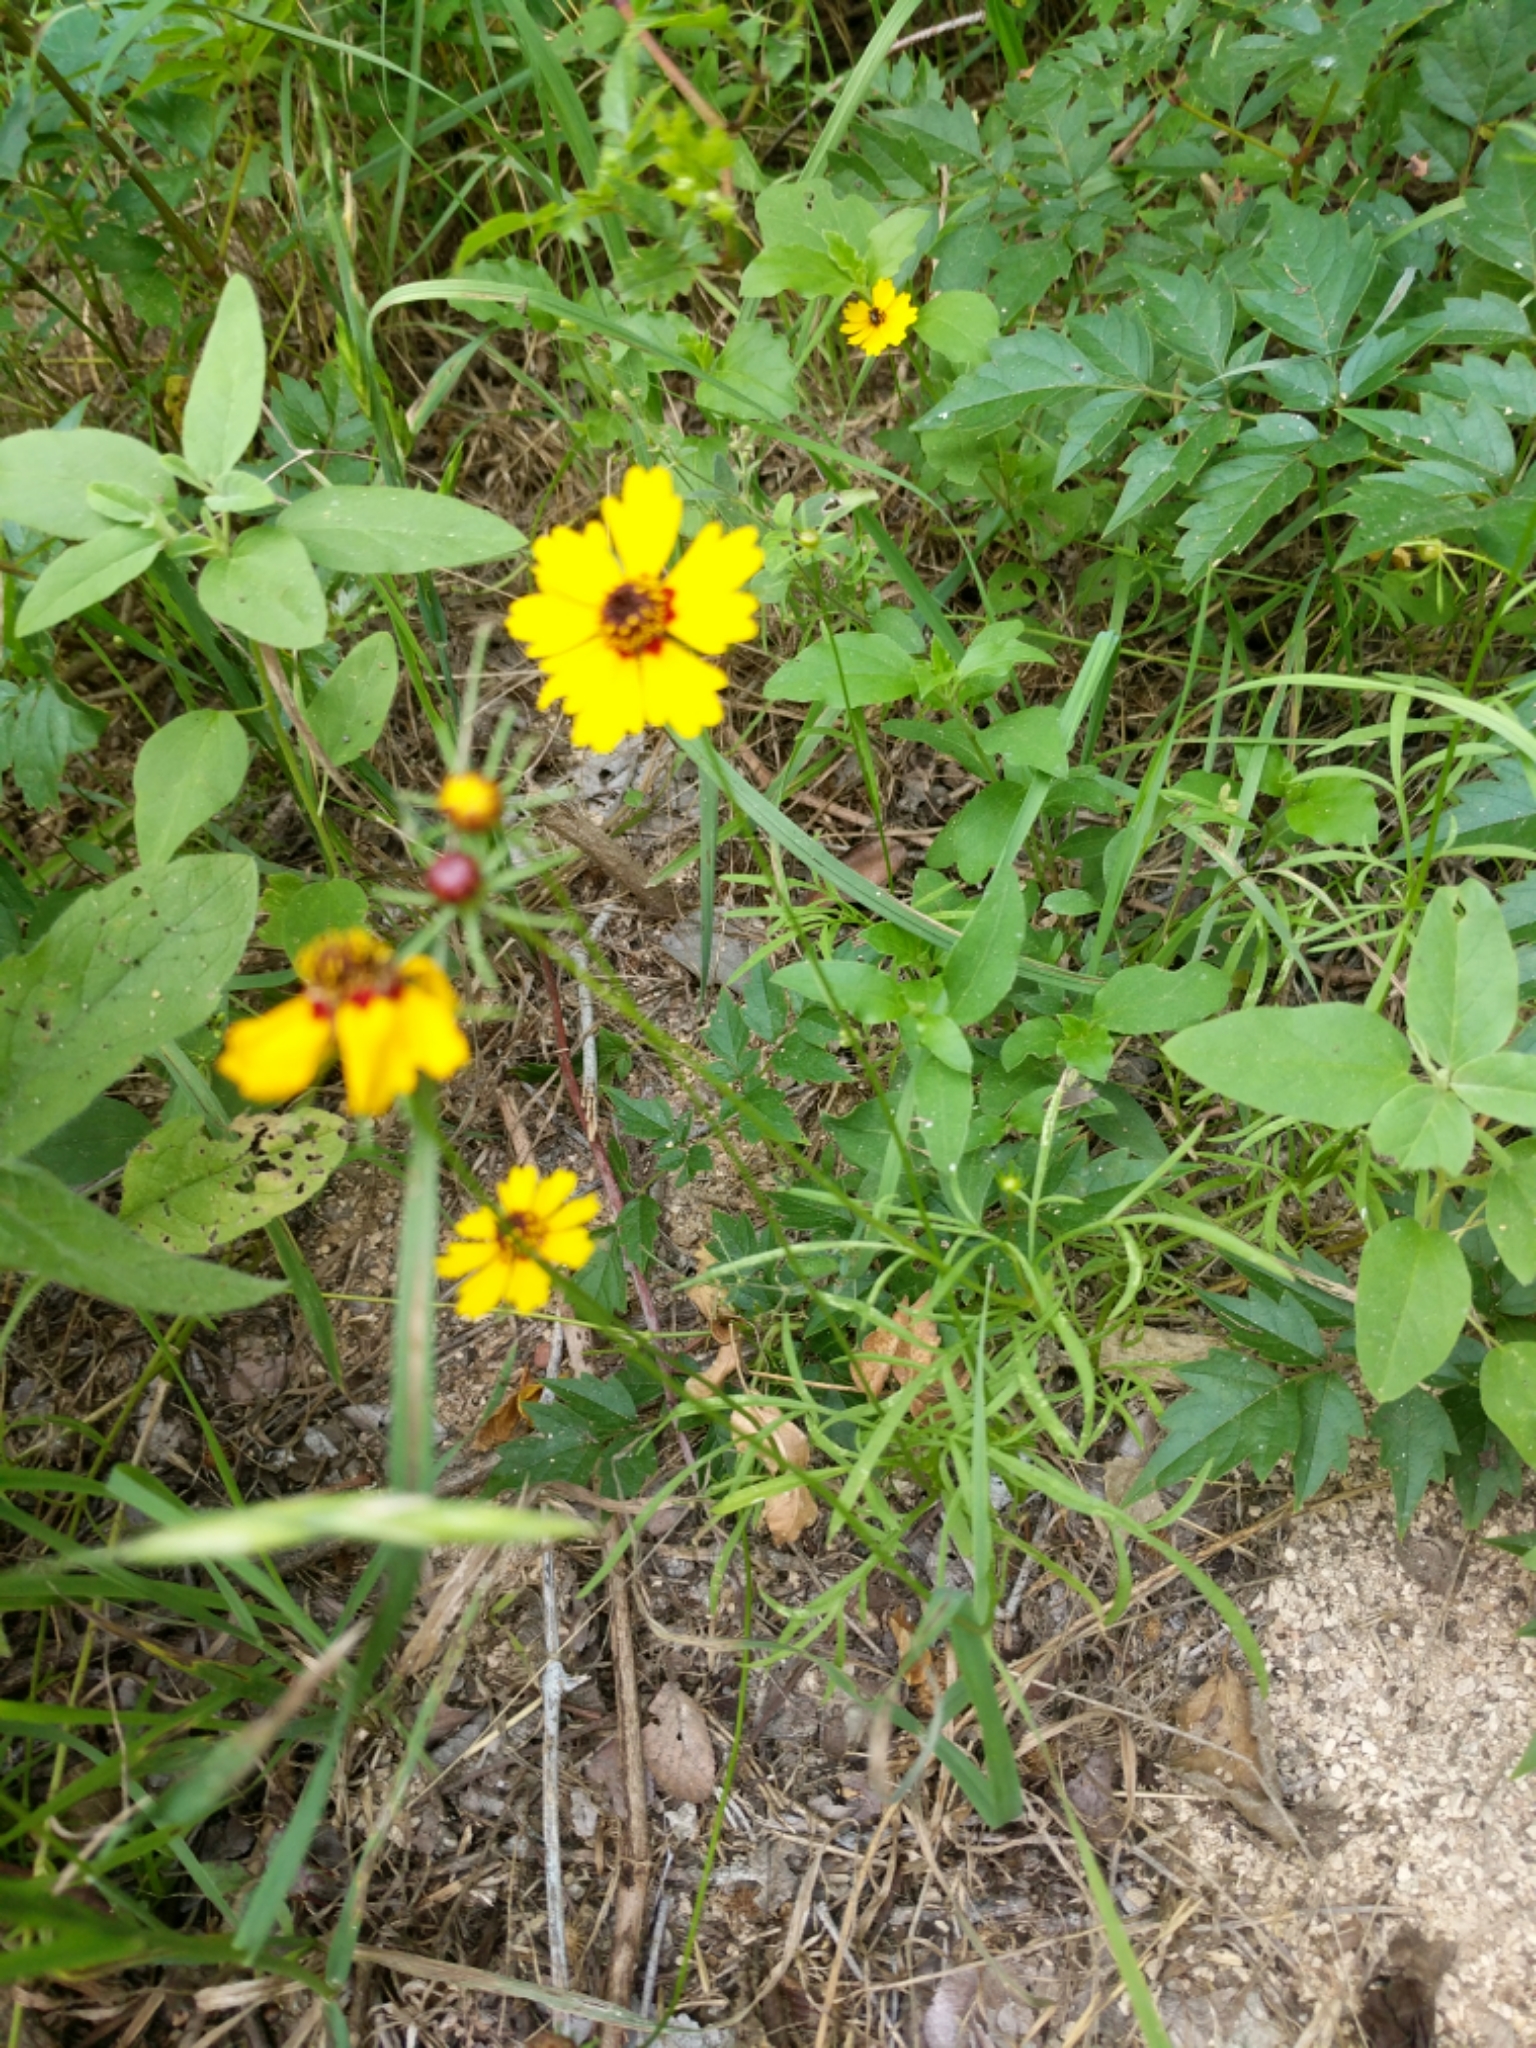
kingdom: Plantae
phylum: Tracheophyta
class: Magnoliopsida
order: Asterales
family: Asteraceae
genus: Coreopsis
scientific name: Coreopsis basalis
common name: Golden-mane coreopsis
